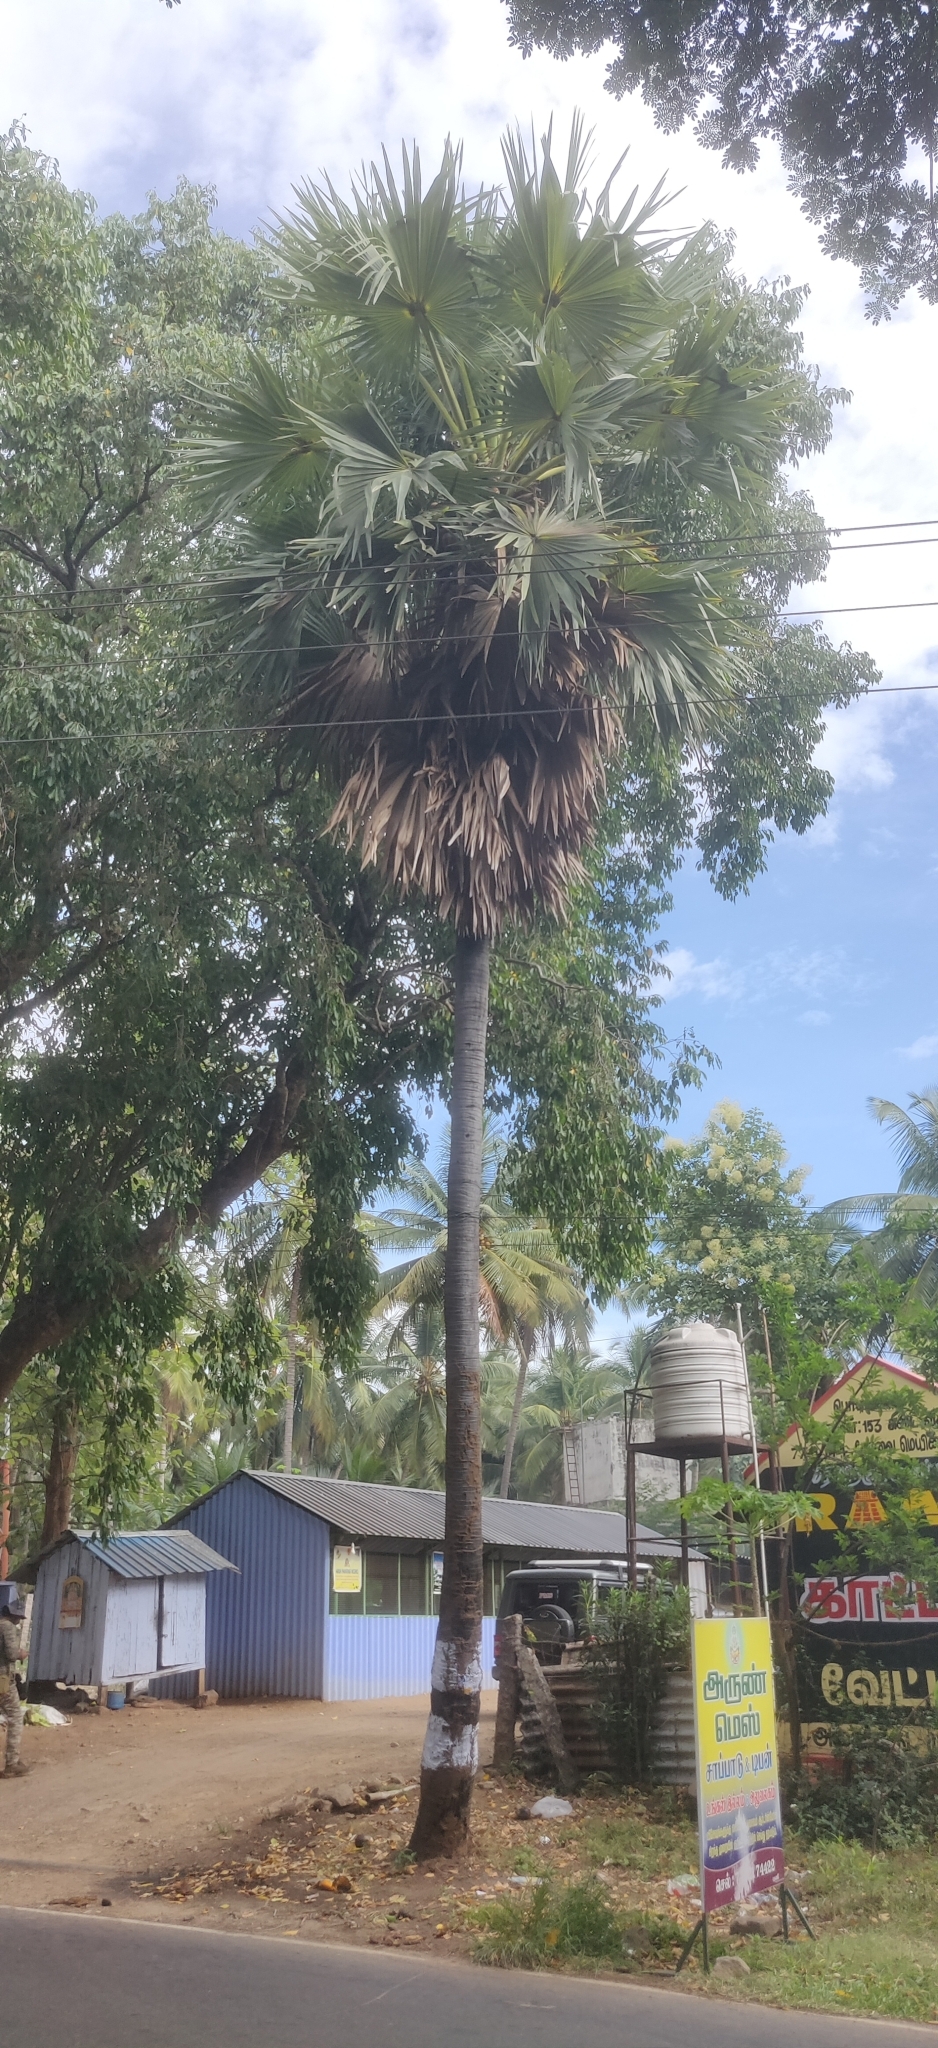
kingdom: Plantae
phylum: Tracheophyta
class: Liliopsida
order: Arecales
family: Arecaceae
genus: Borassus
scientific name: Borassus flabellifer
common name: Palmyra palm
